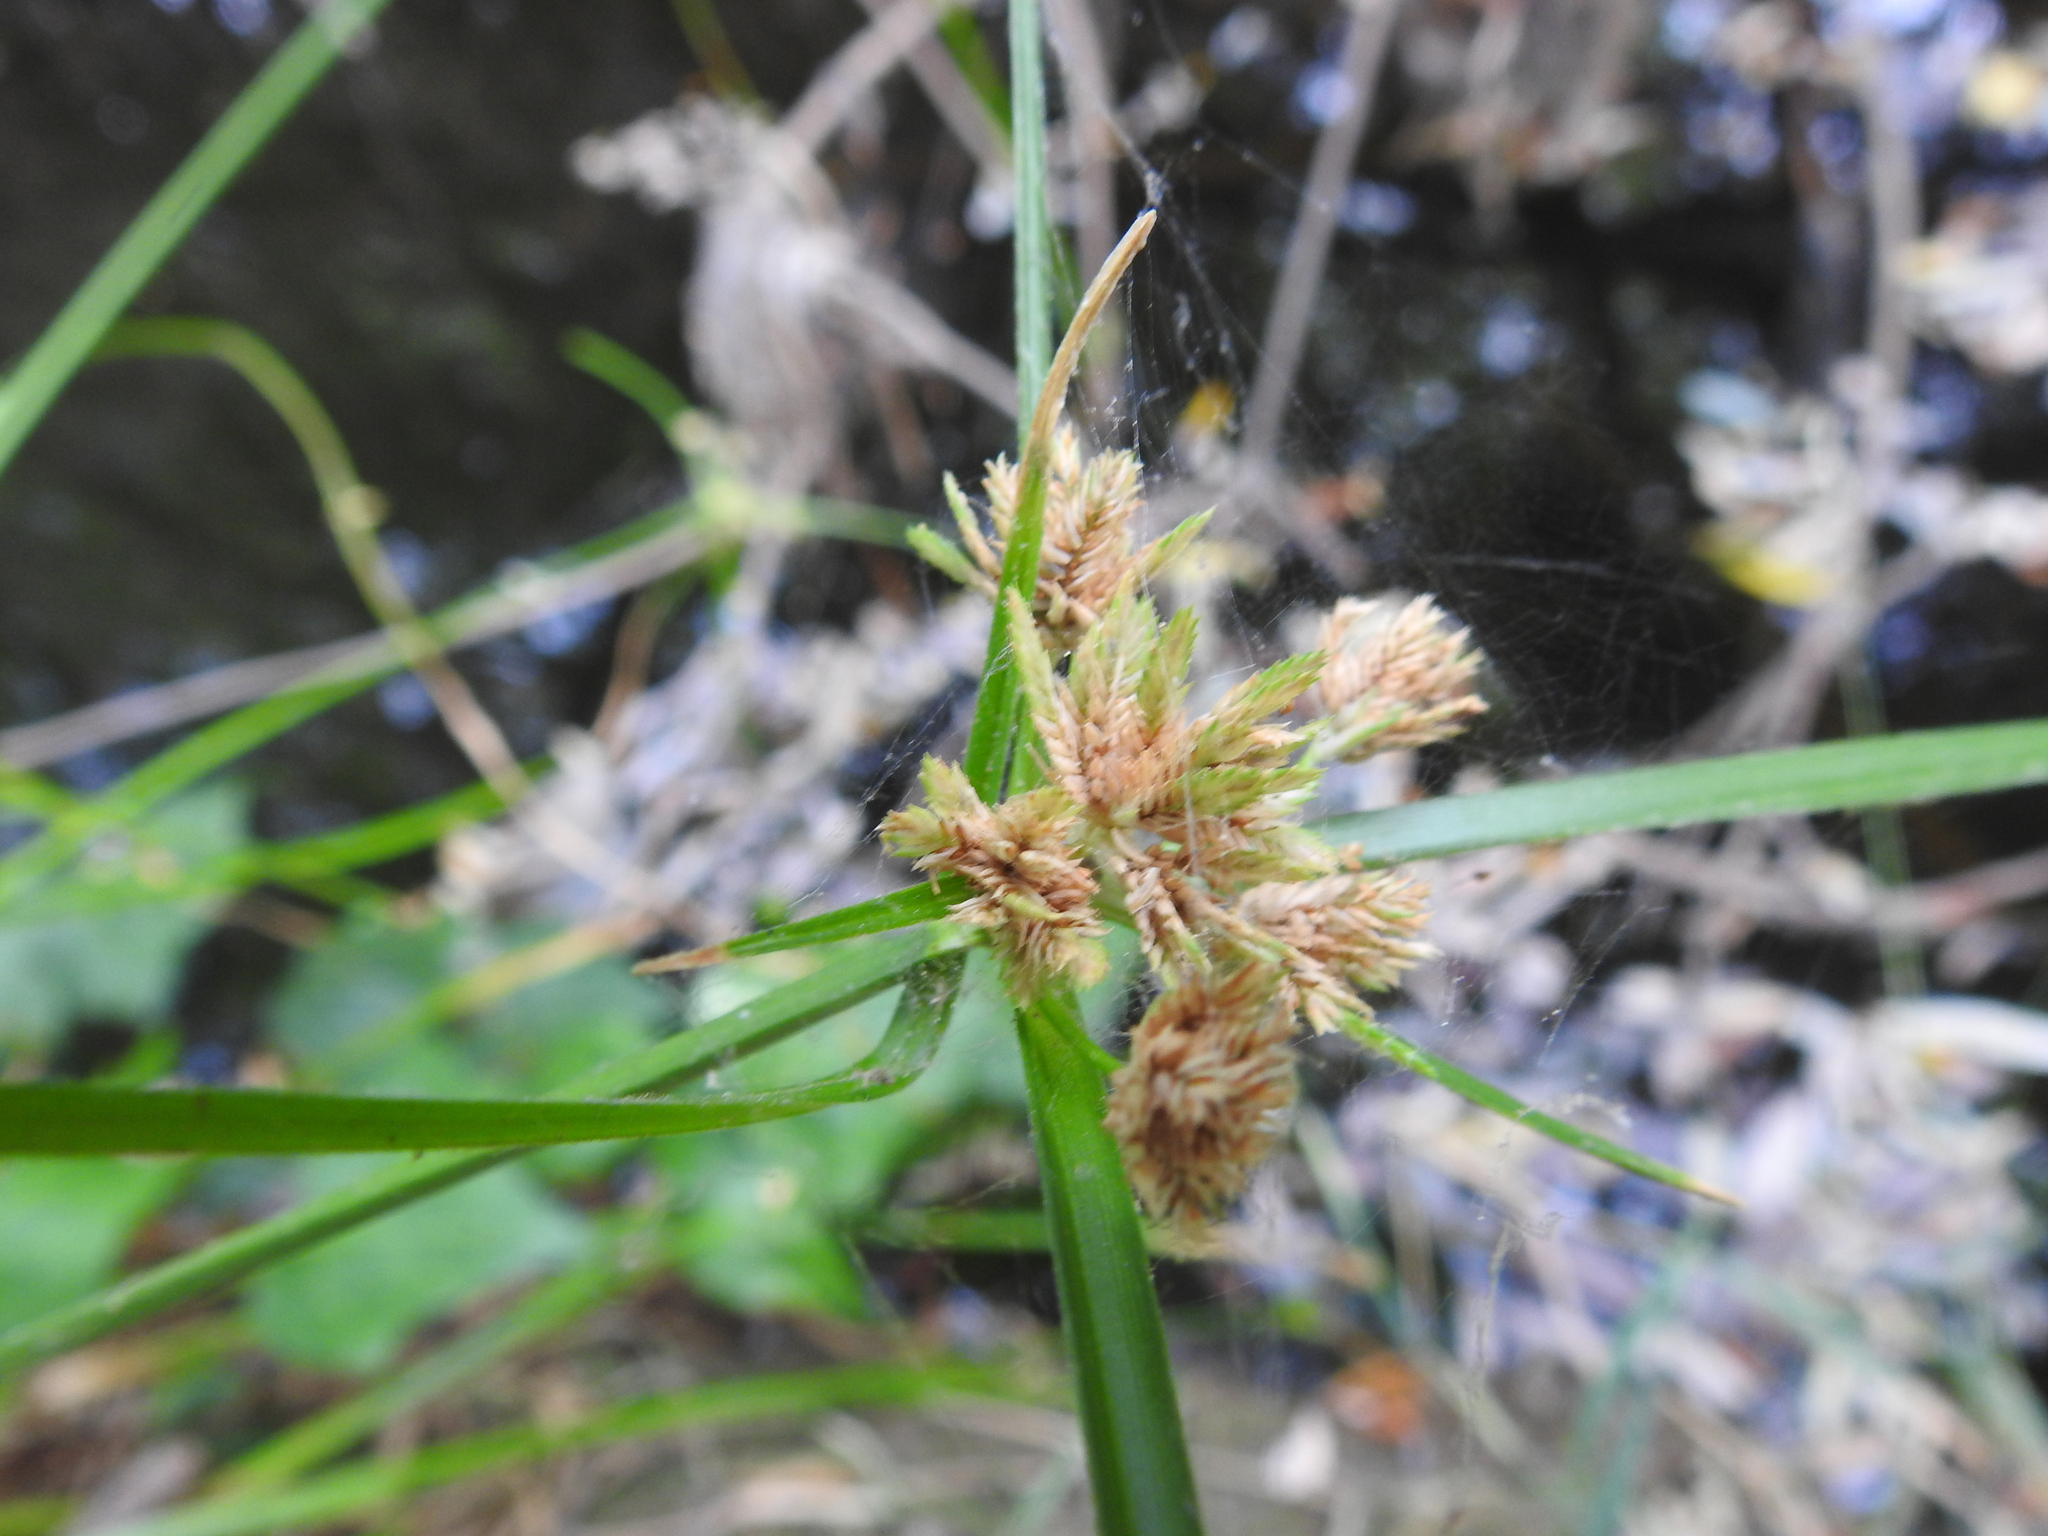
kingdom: Plantae
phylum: Tracheophyta
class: Liliopsida
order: Poales
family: Cyperaceae
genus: Cyperus
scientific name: Cyperus eragrostis
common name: Tall flatsedge
